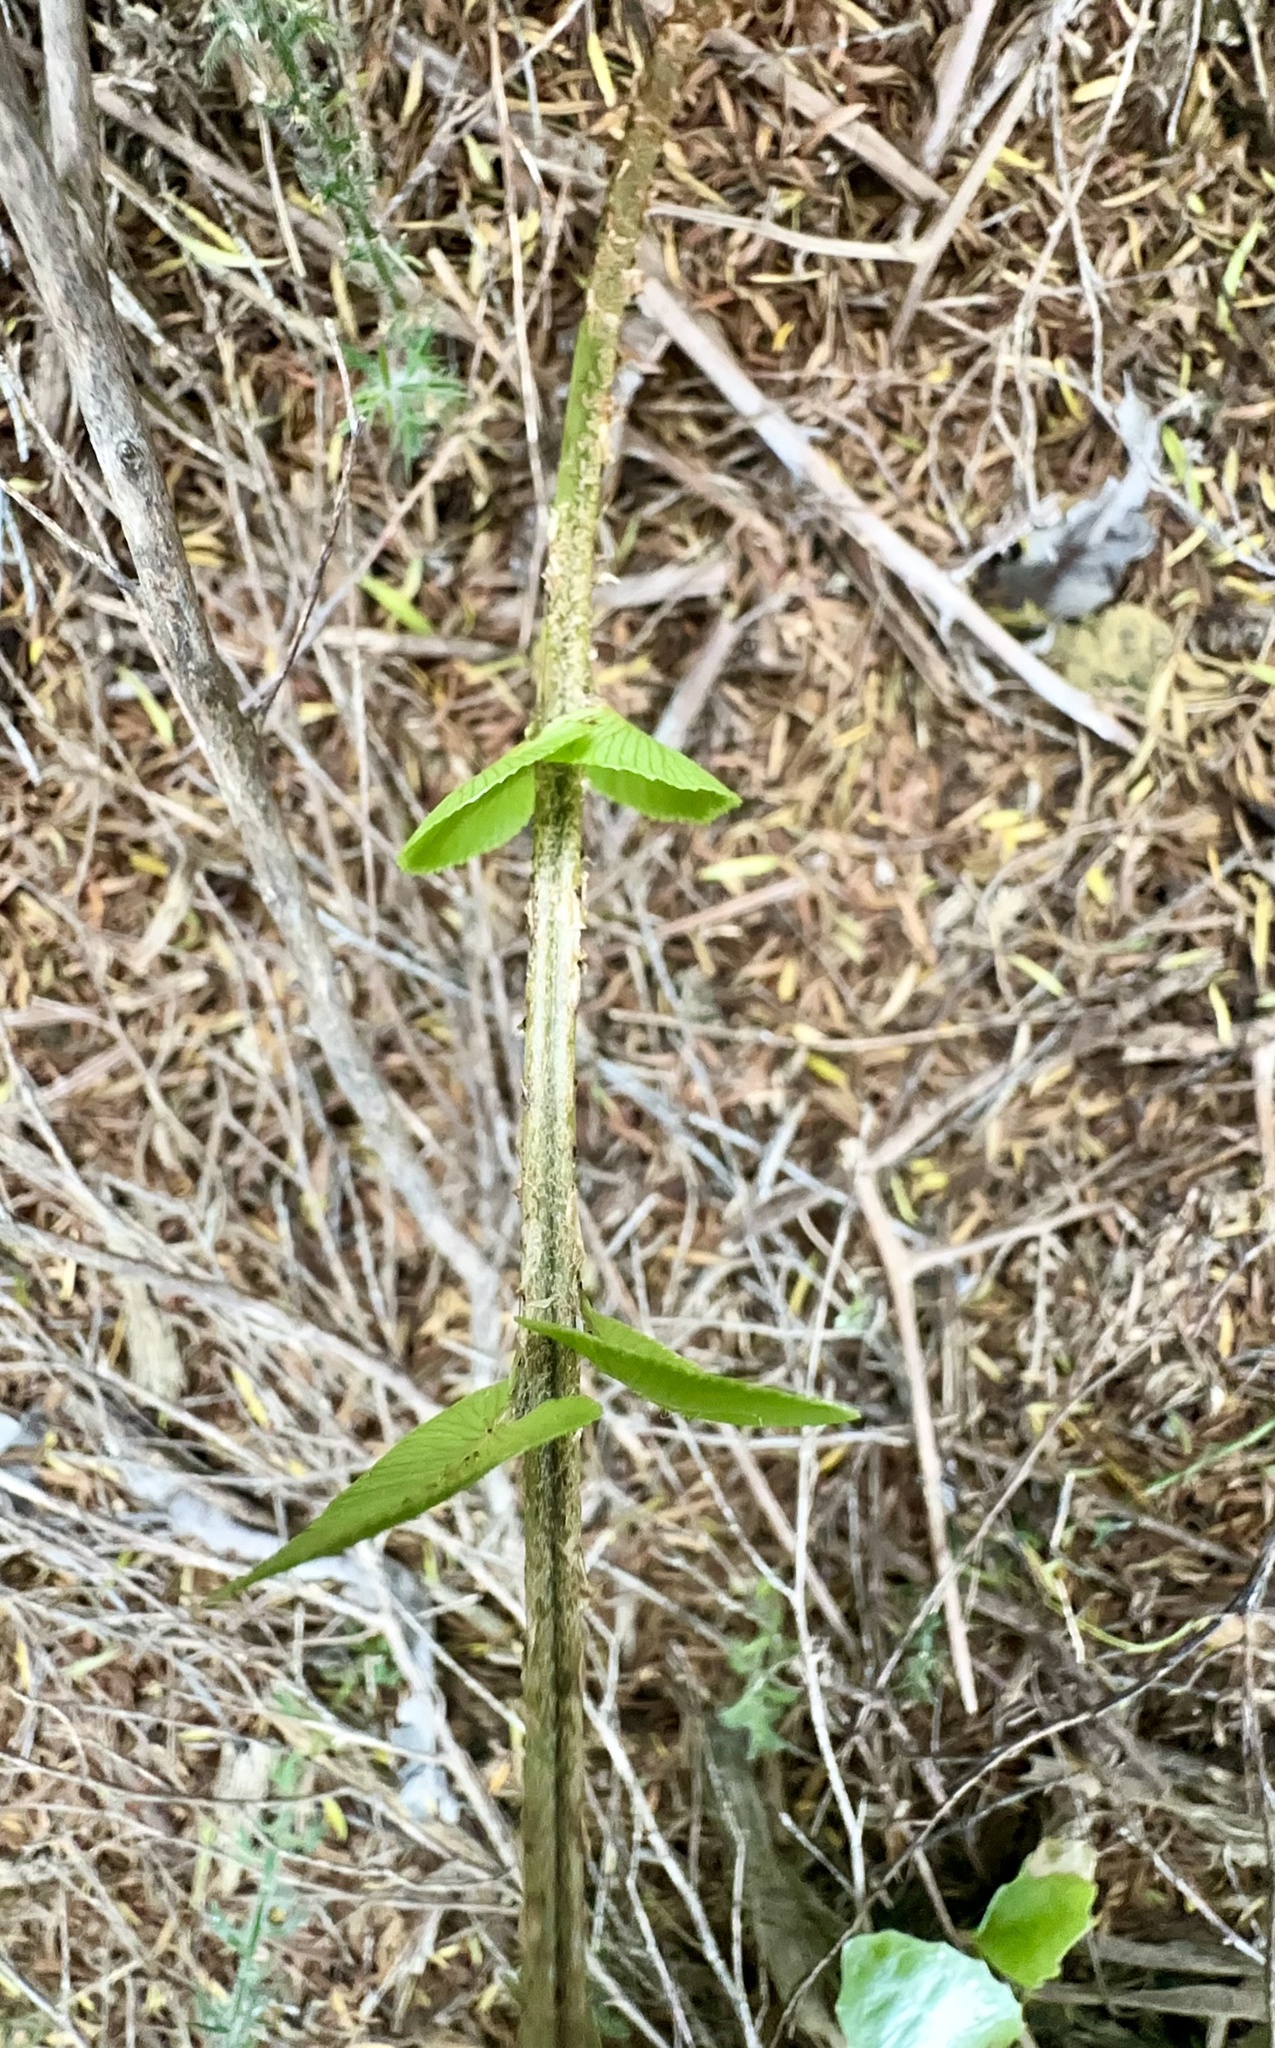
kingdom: Plantae
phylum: Tracheophyta
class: Polypodiopsida
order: Polypodiales
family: Blechnaceae
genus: Parablechnum
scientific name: Parablechnum novae-zelandiae
